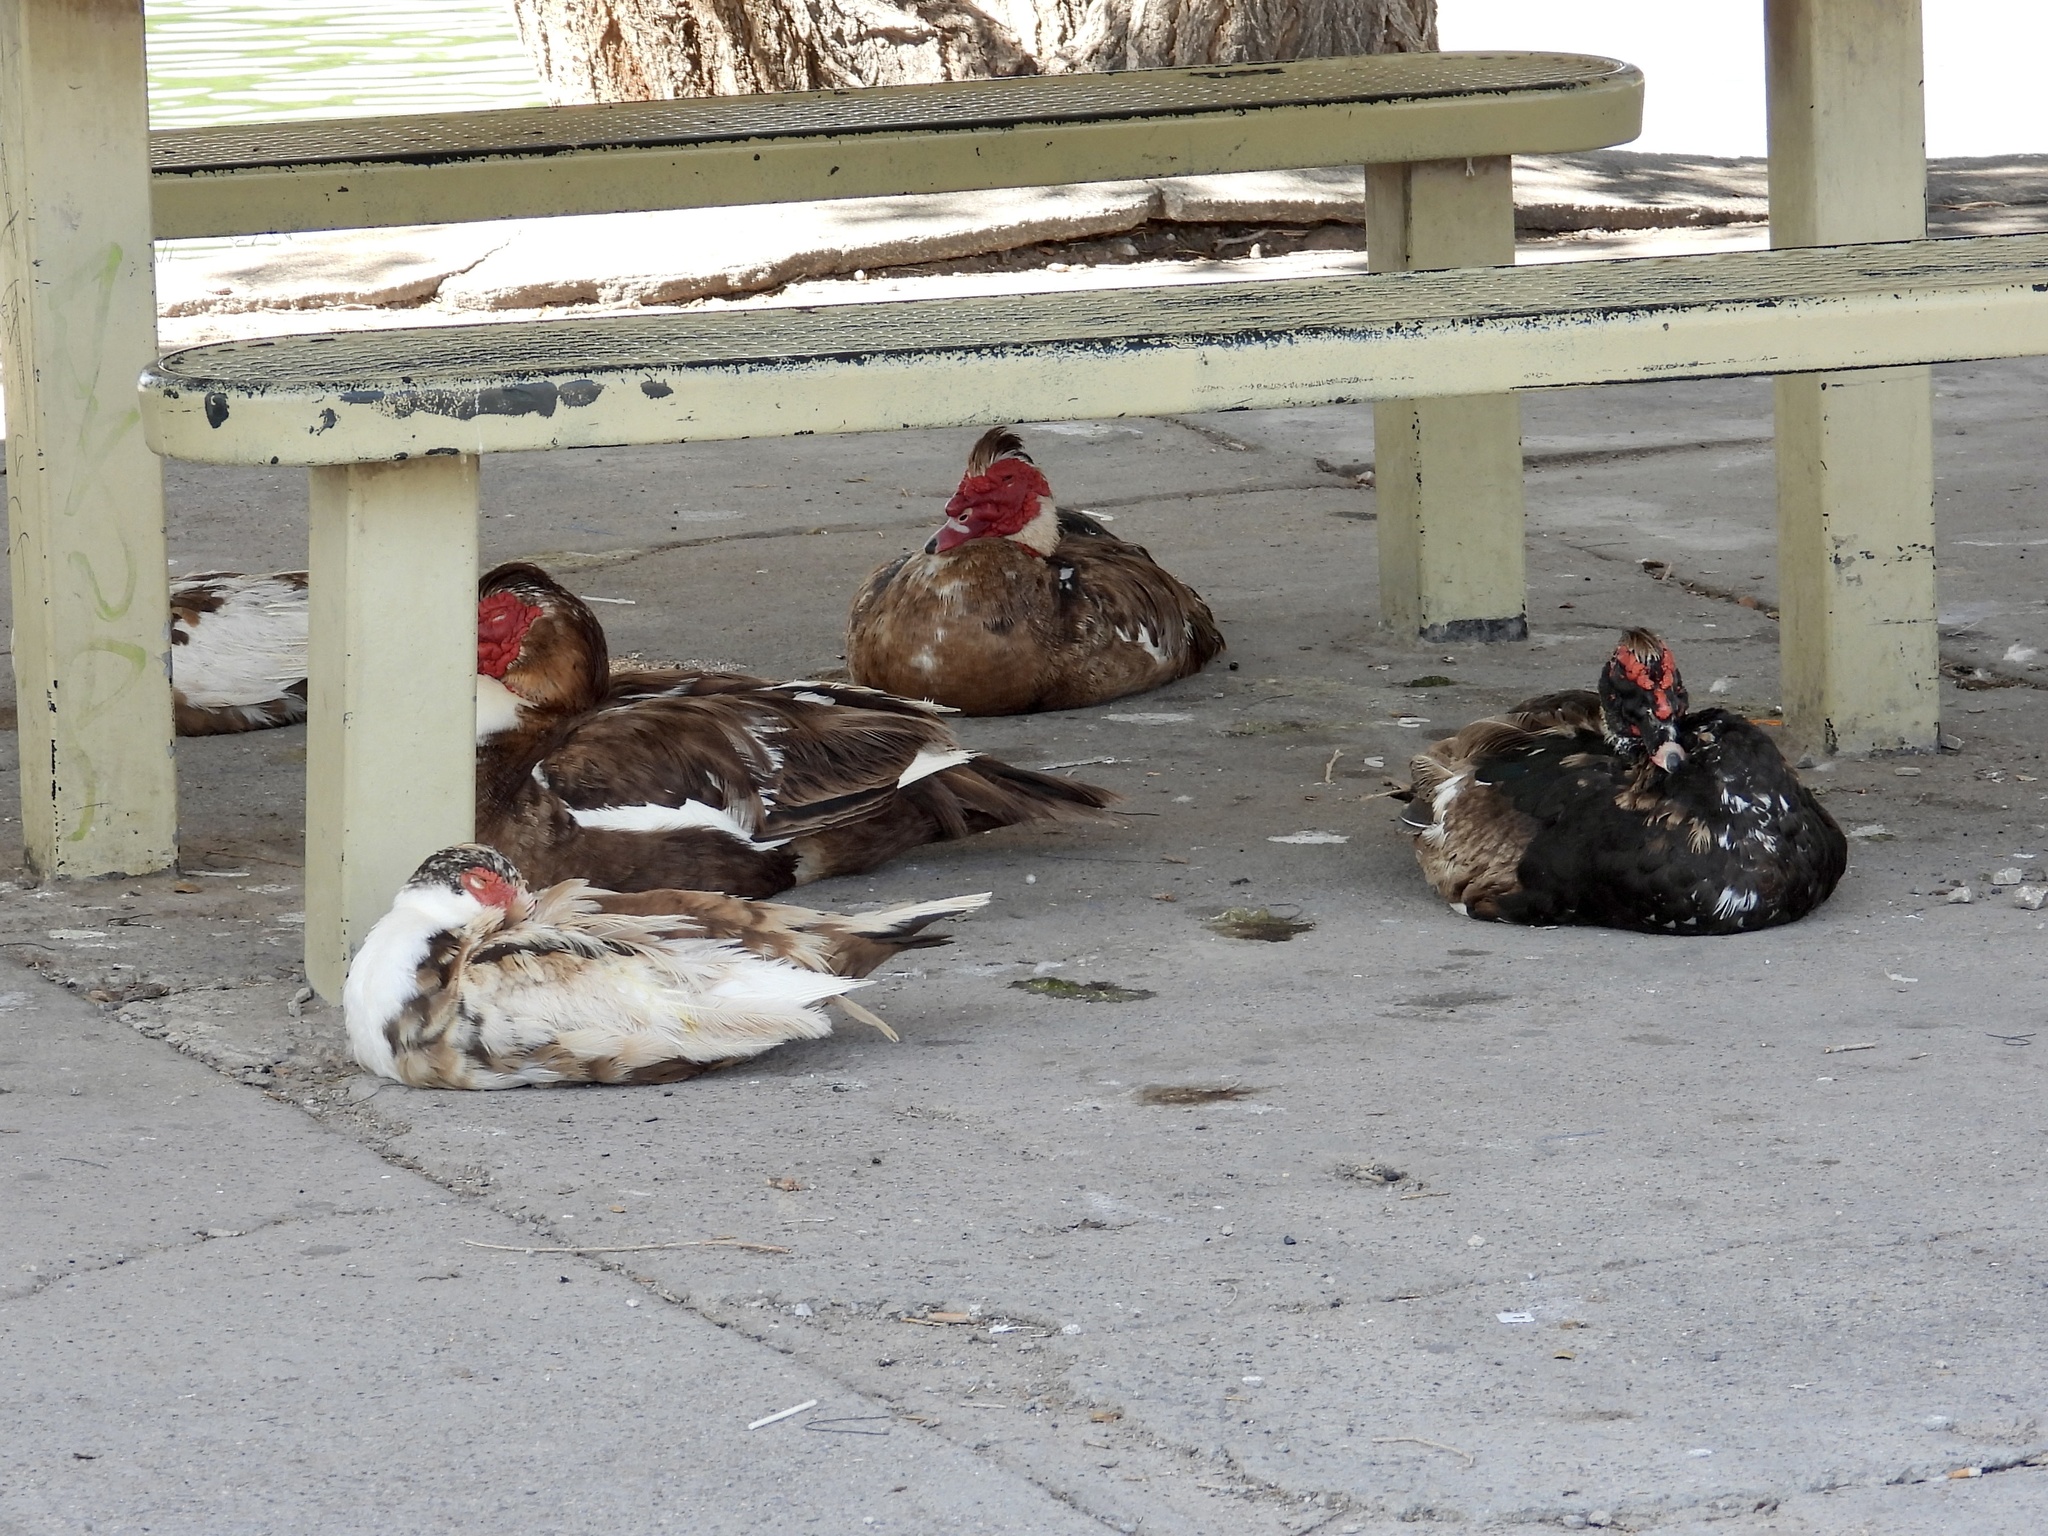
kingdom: Animalia
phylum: Chordata
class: Aves
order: Anseriformes
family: Anatidae
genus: Cairina
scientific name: Cairina moschata
